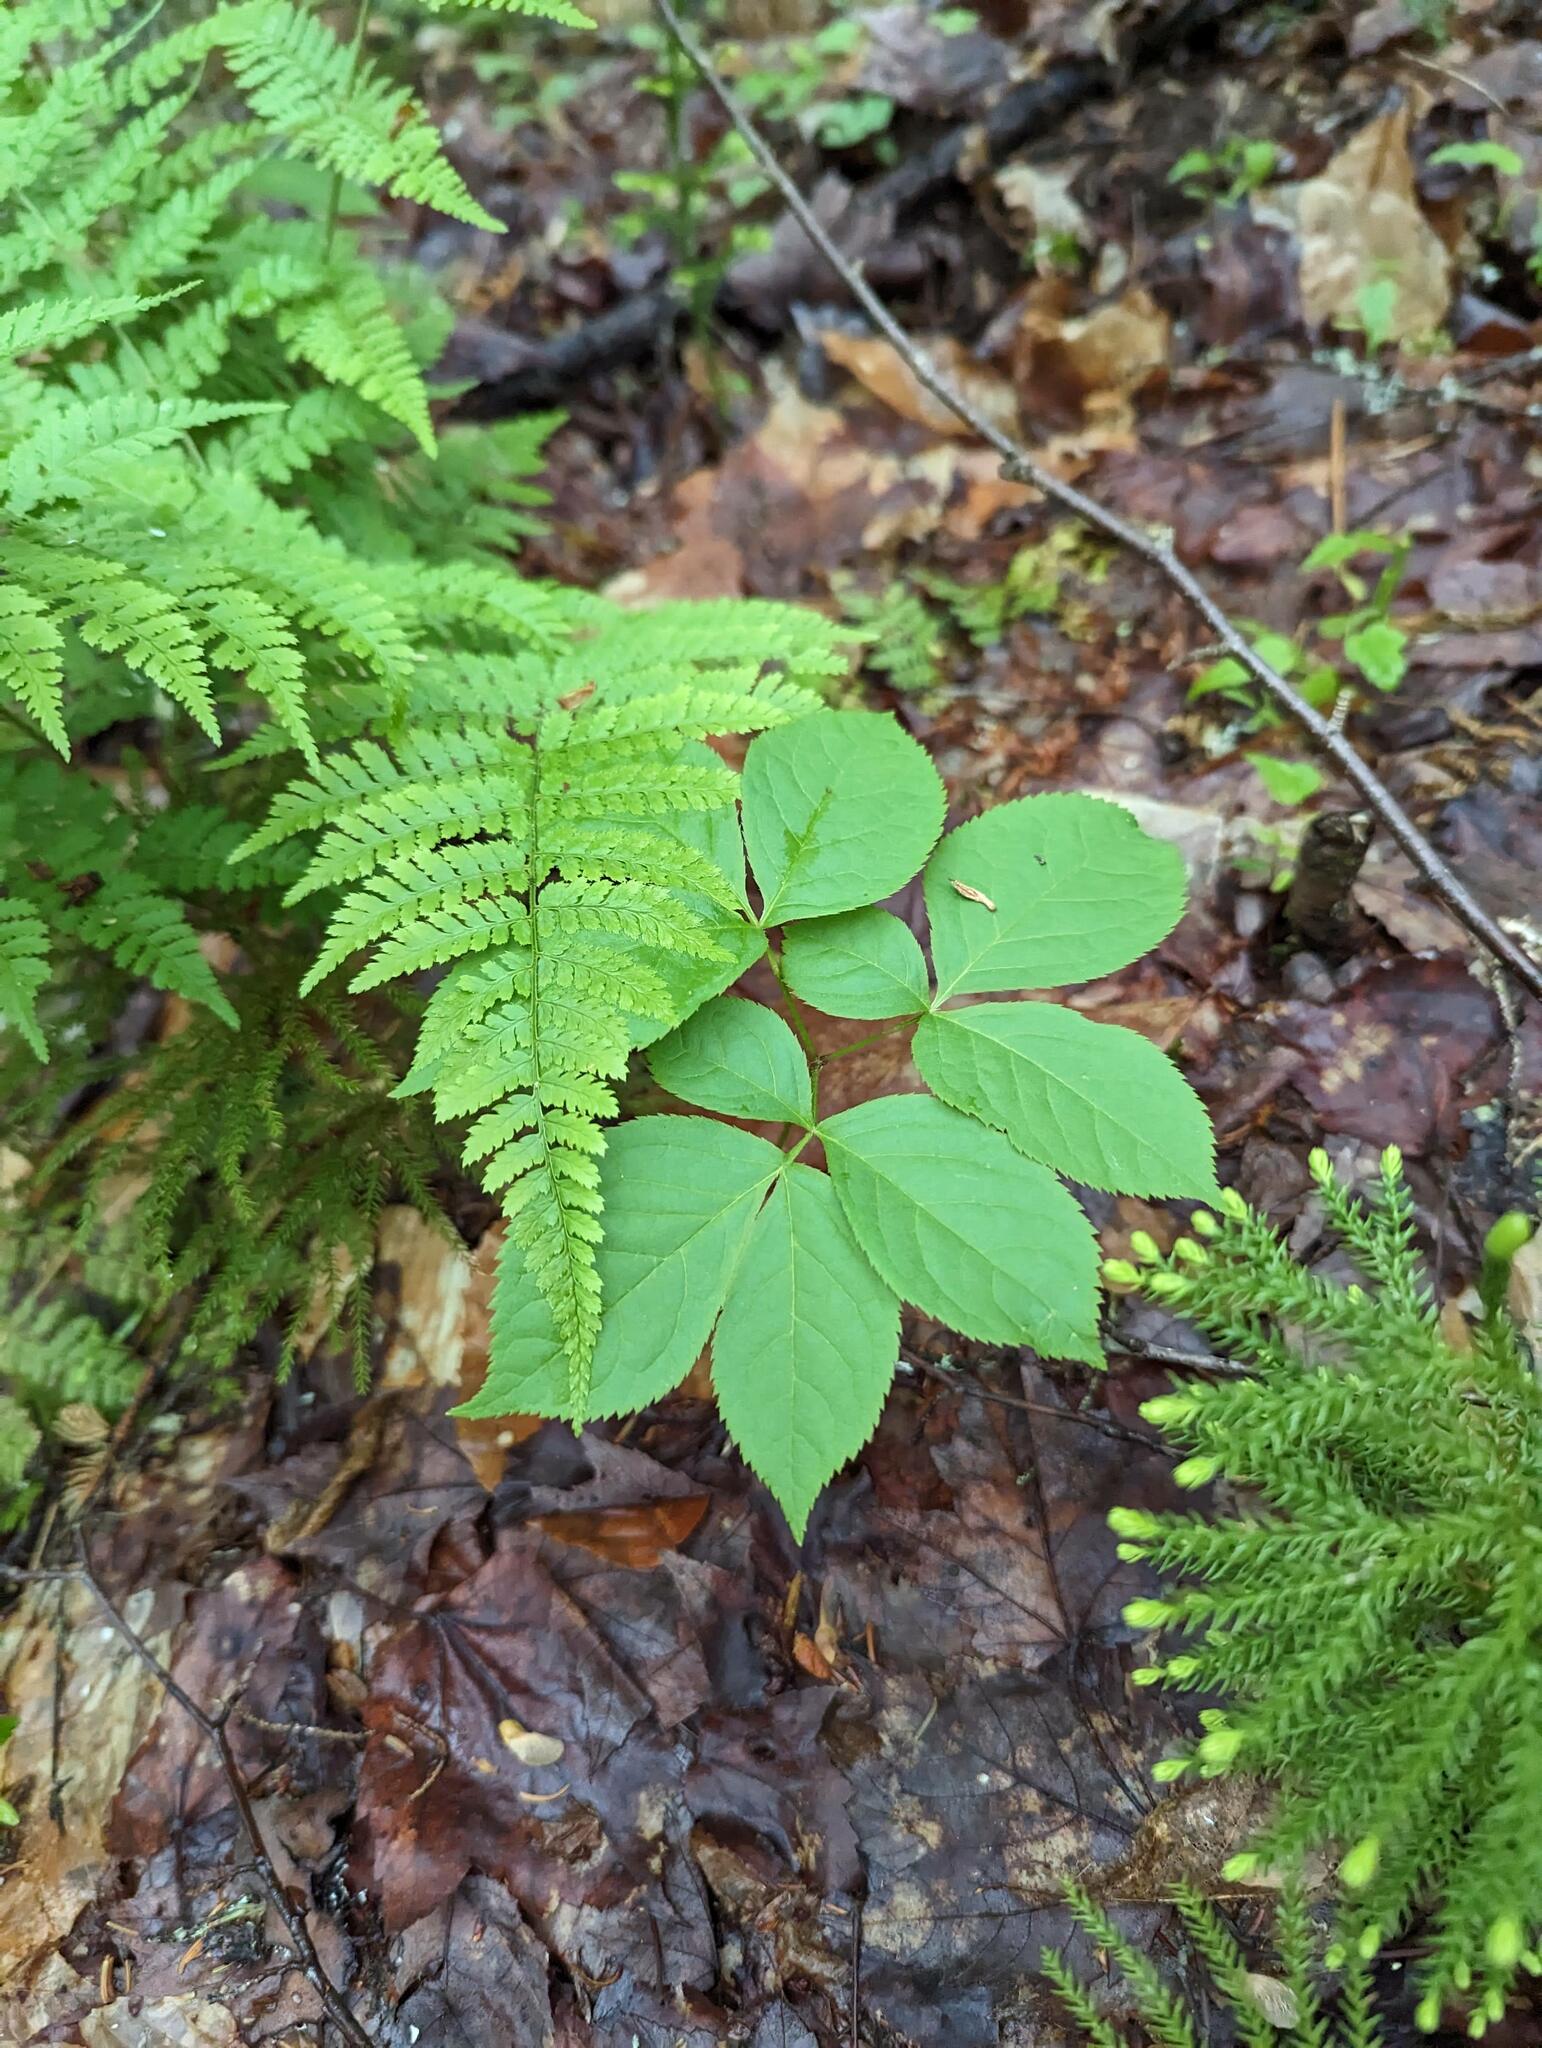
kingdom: Plantae
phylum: Tracheophyta
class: Magnoliopsida
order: Apiales
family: Araliaceae
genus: Aralia
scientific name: Aralia nudicaulis
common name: Wild sarsaparilla
